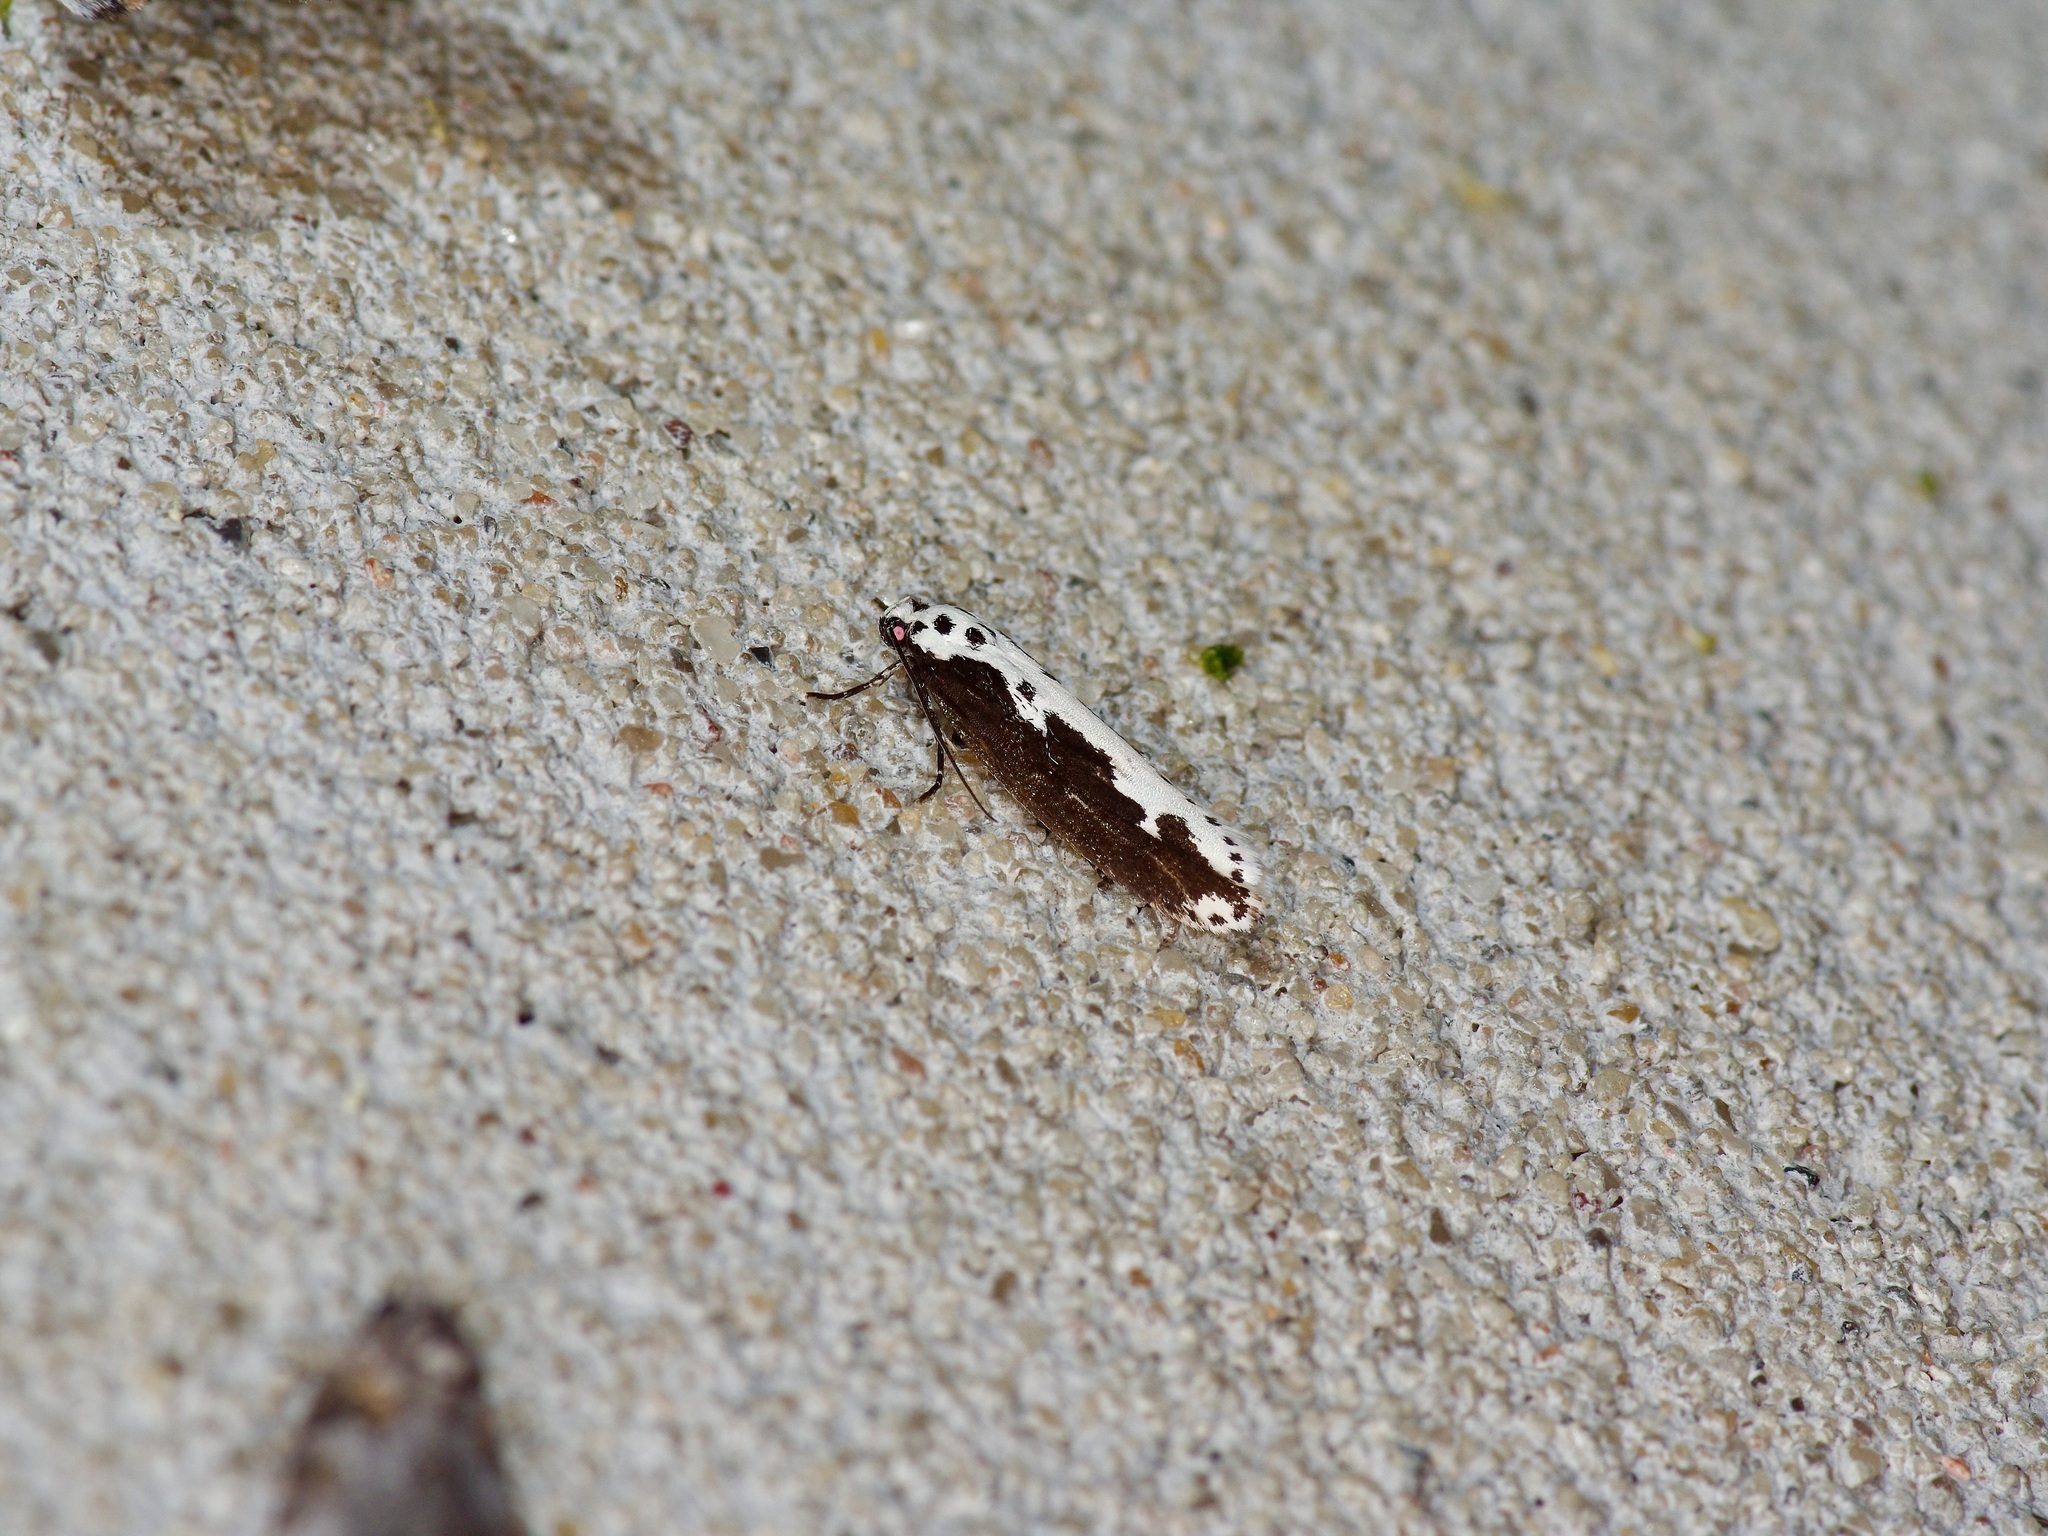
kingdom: Animalia
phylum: Arthropoda
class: Insecta
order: Lepidoptera
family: Ethmiidae
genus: Ethmia
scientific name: Ethmia semilugens
